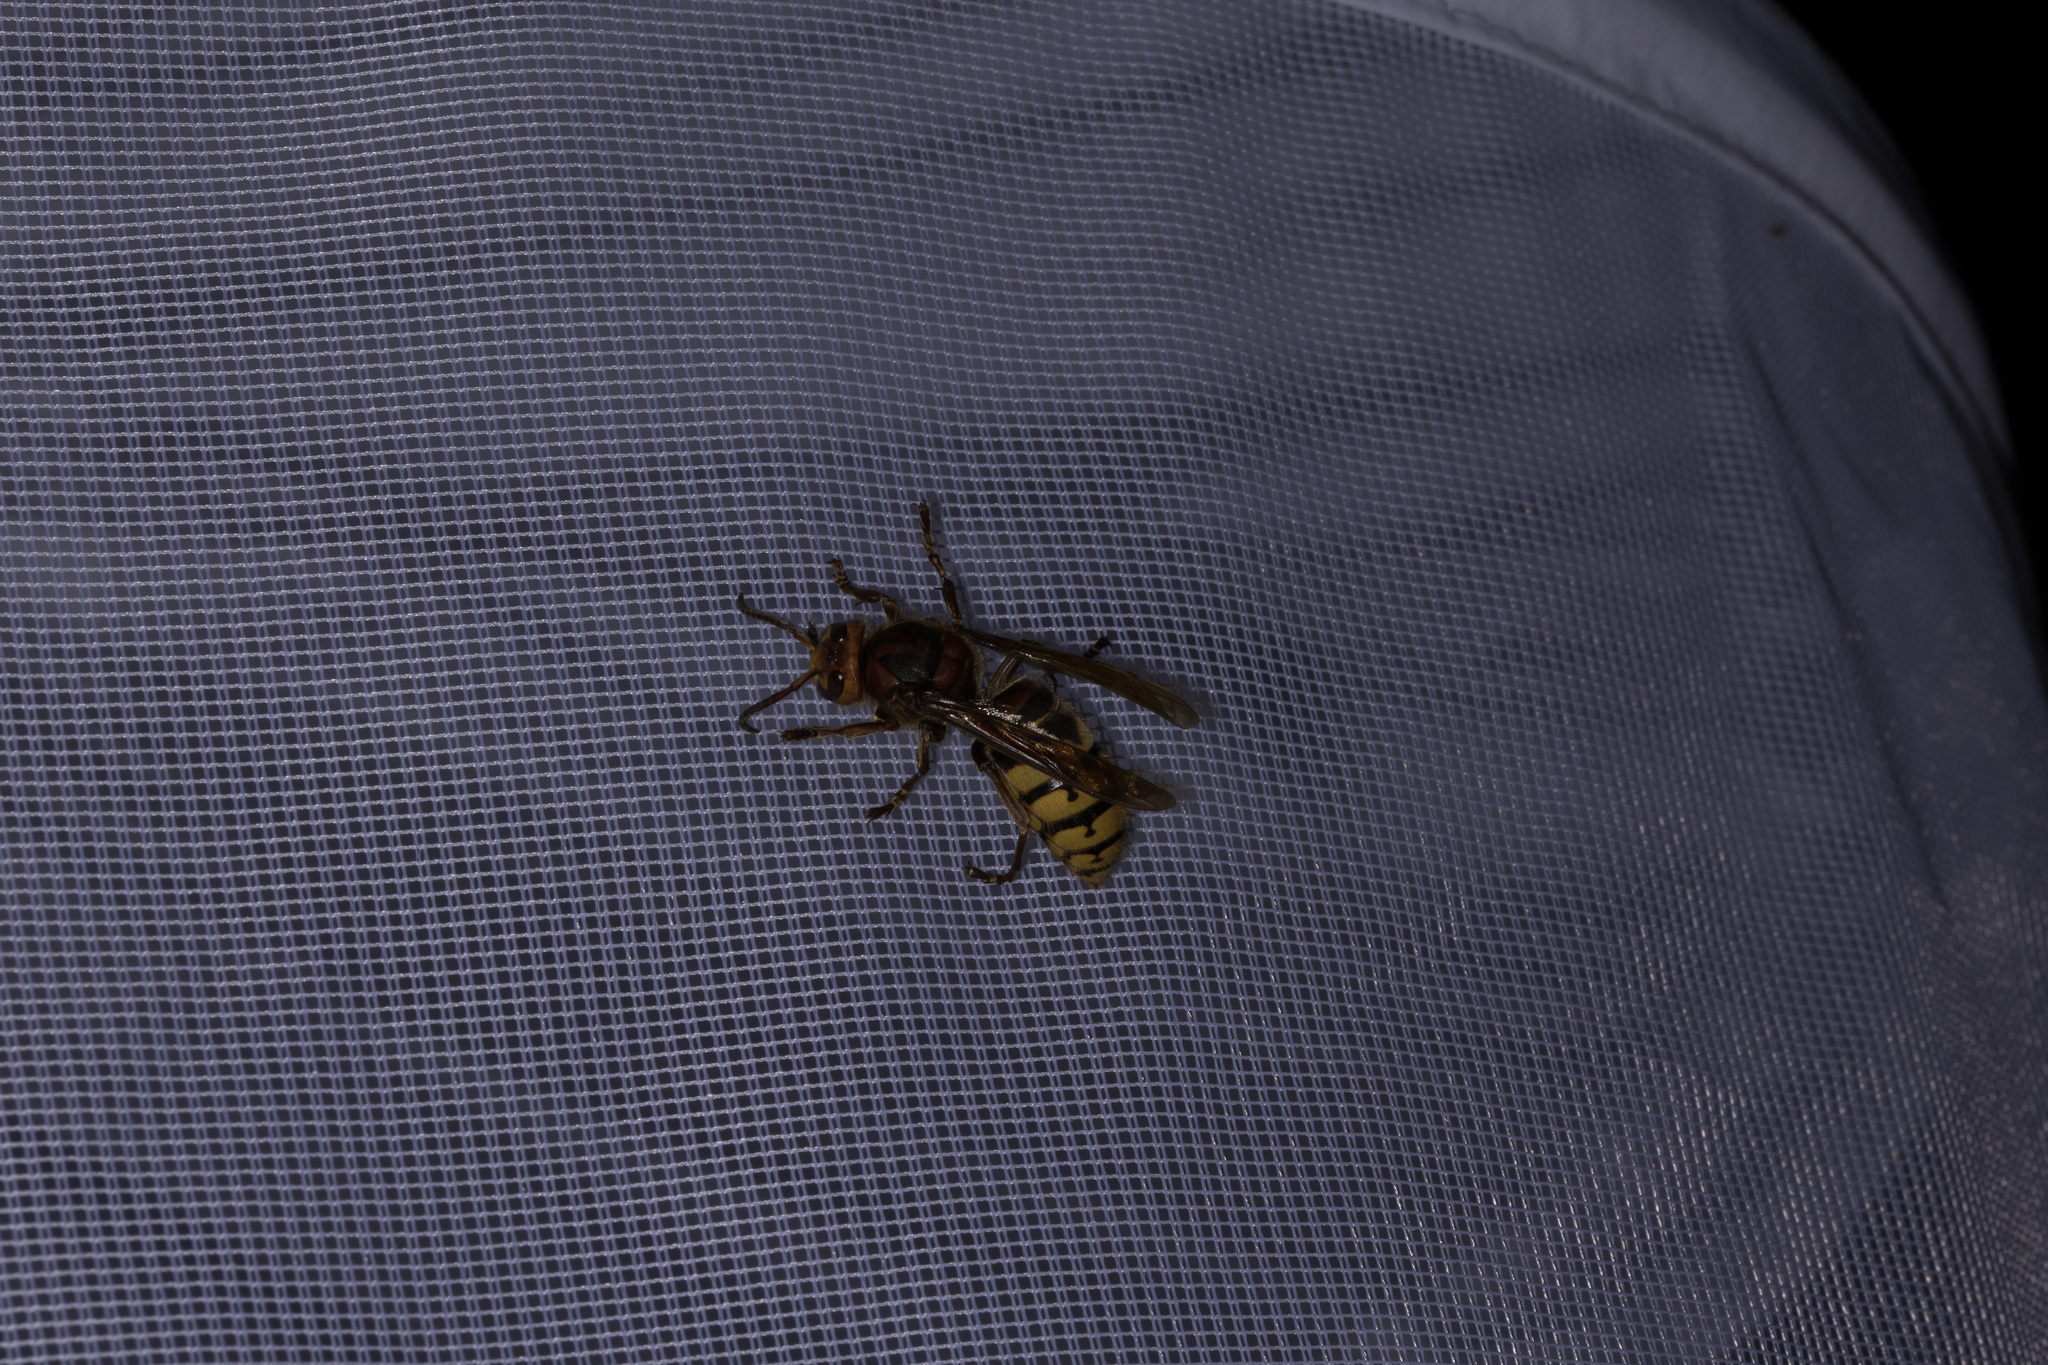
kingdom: Animalia
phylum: Arthropoda
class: Insecta
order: Hymenoptera
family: Vespidae
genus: Vespa
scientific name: Vespa crabro
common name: Hornet
